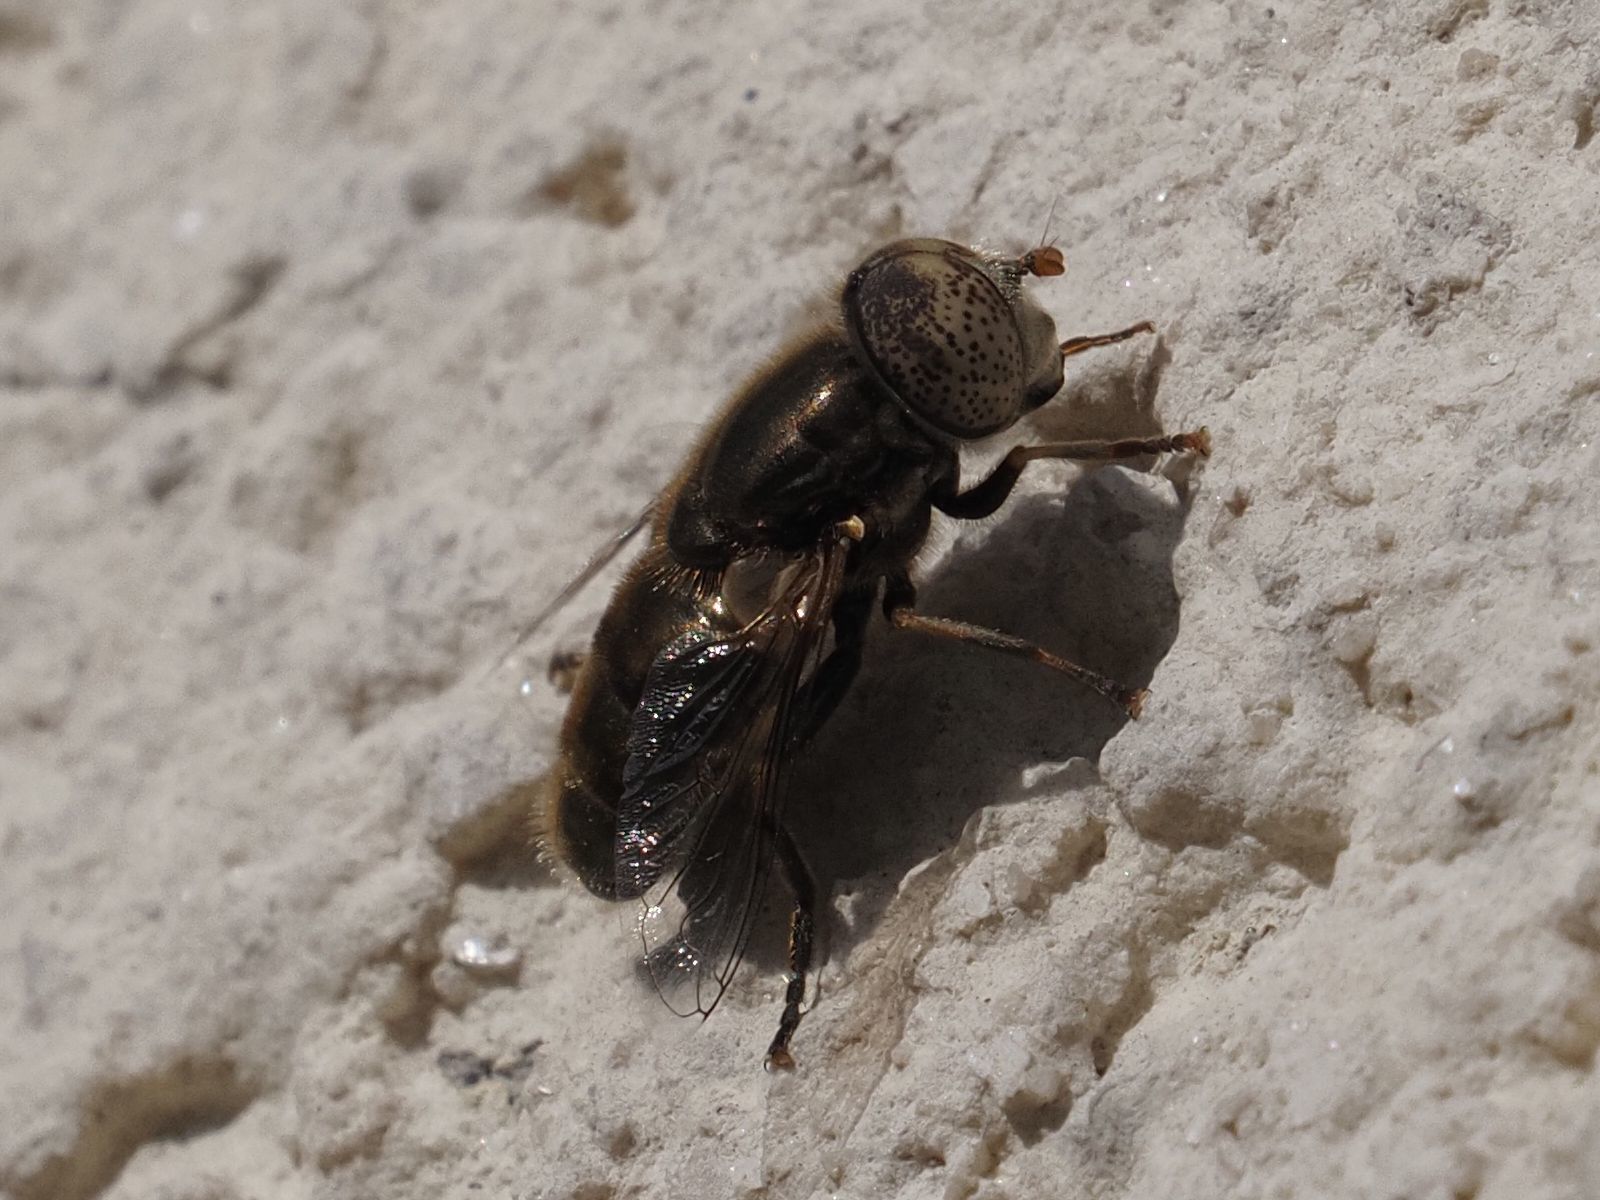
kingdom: Animalia
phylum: Arthropoda
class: Insecta
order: Diptera
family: Syrphidae
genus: Eristalinus
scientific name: Eristalinus aeneus
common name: Syrphid fly
